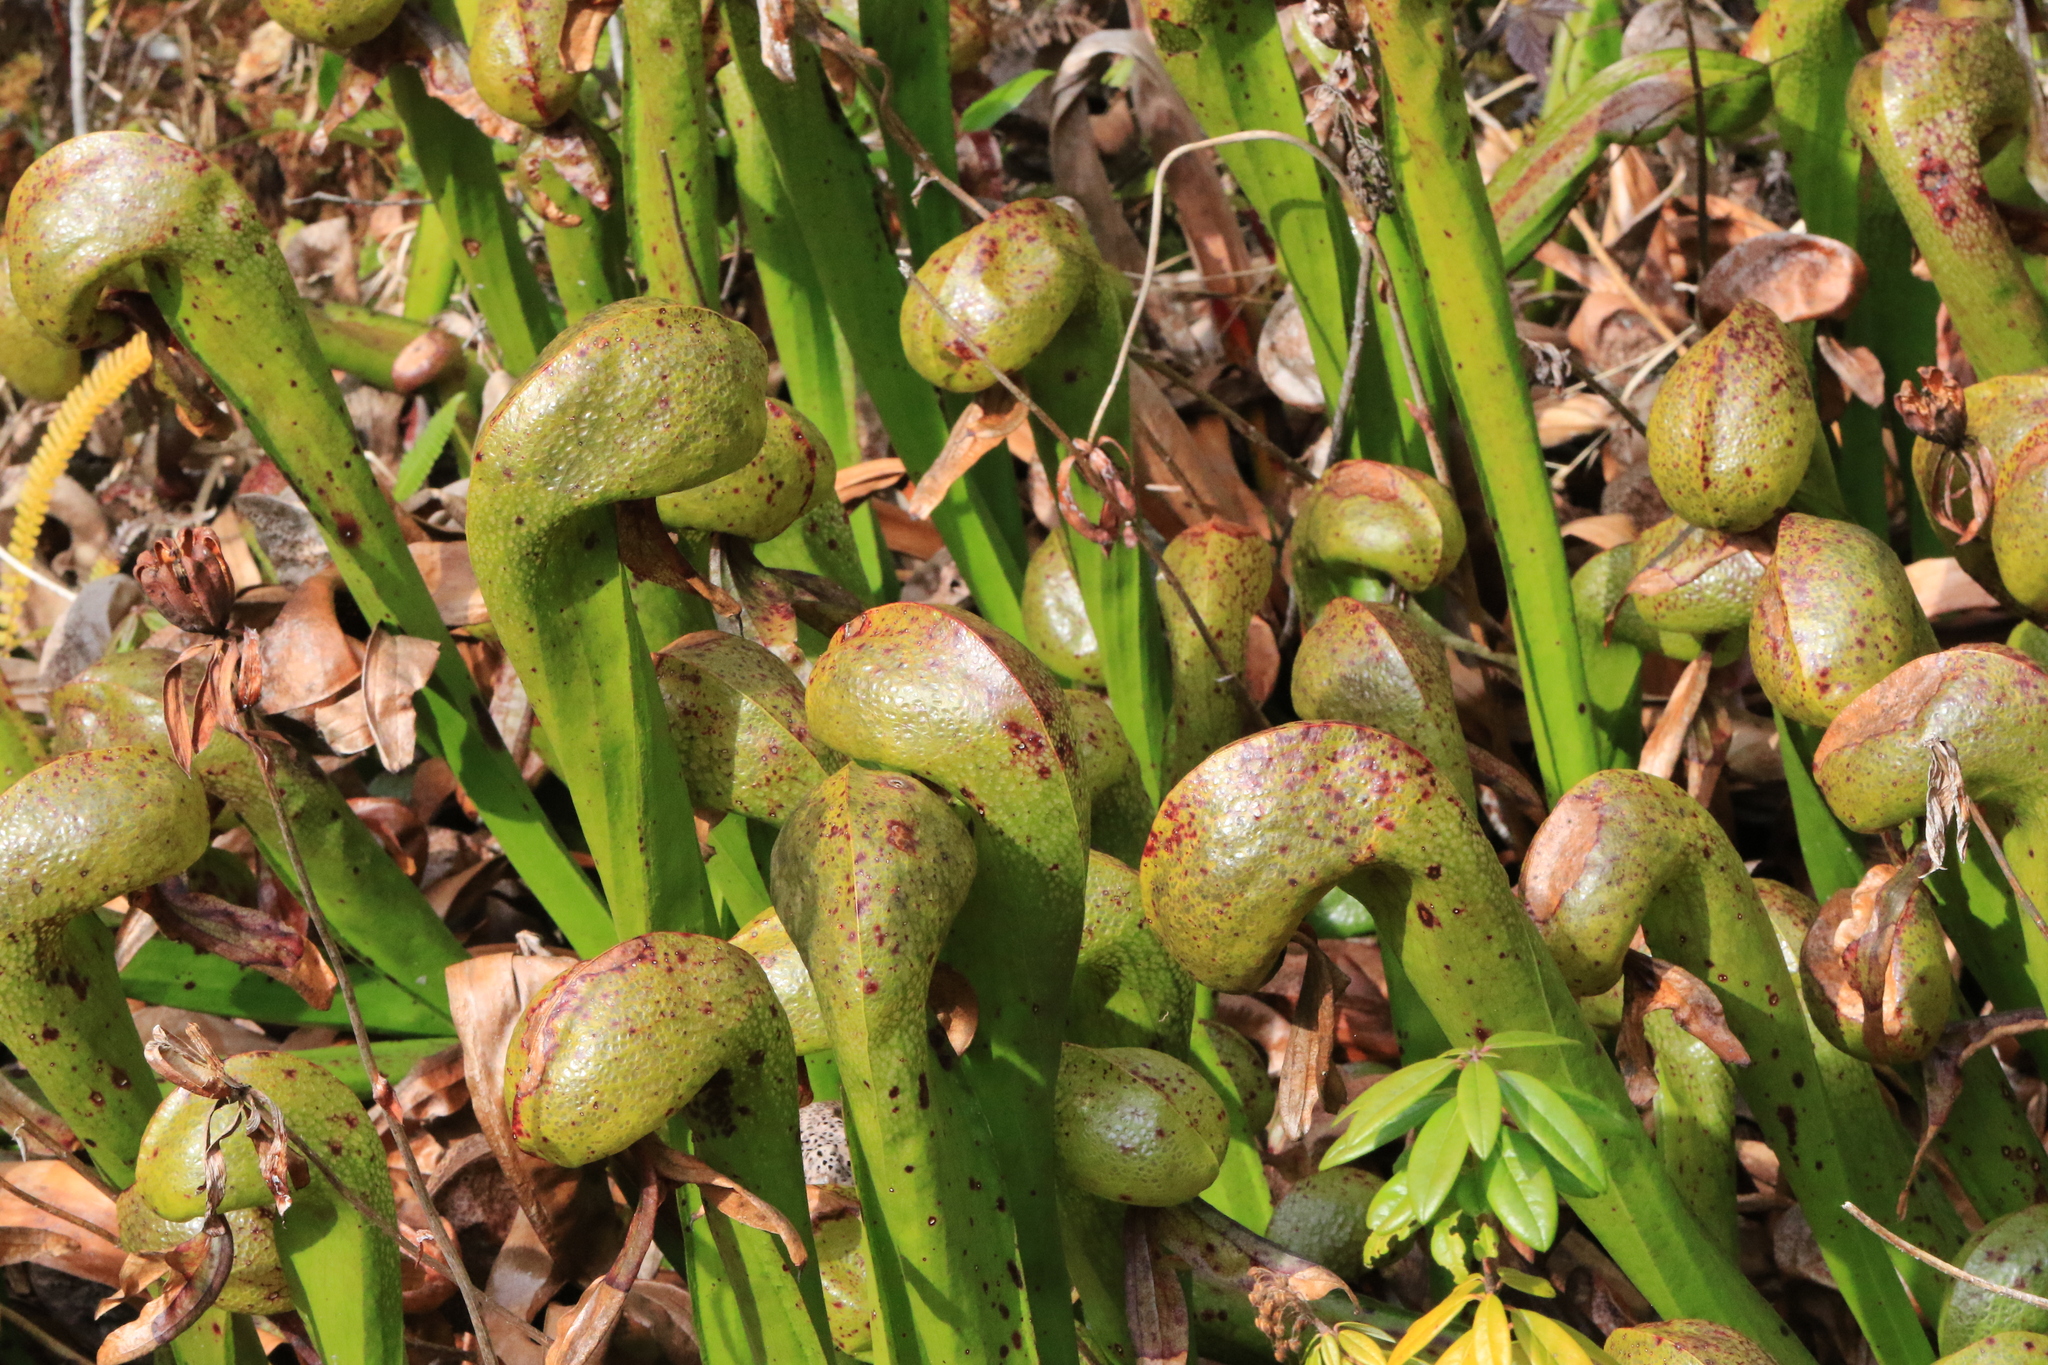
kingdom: Plantae
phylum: Tracheophyta
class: Magnoliopsida
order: Ericales
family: Sarraceniaceae
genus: Darlingtonia
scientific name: Darlingtonia californica
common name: California pitcher plant
